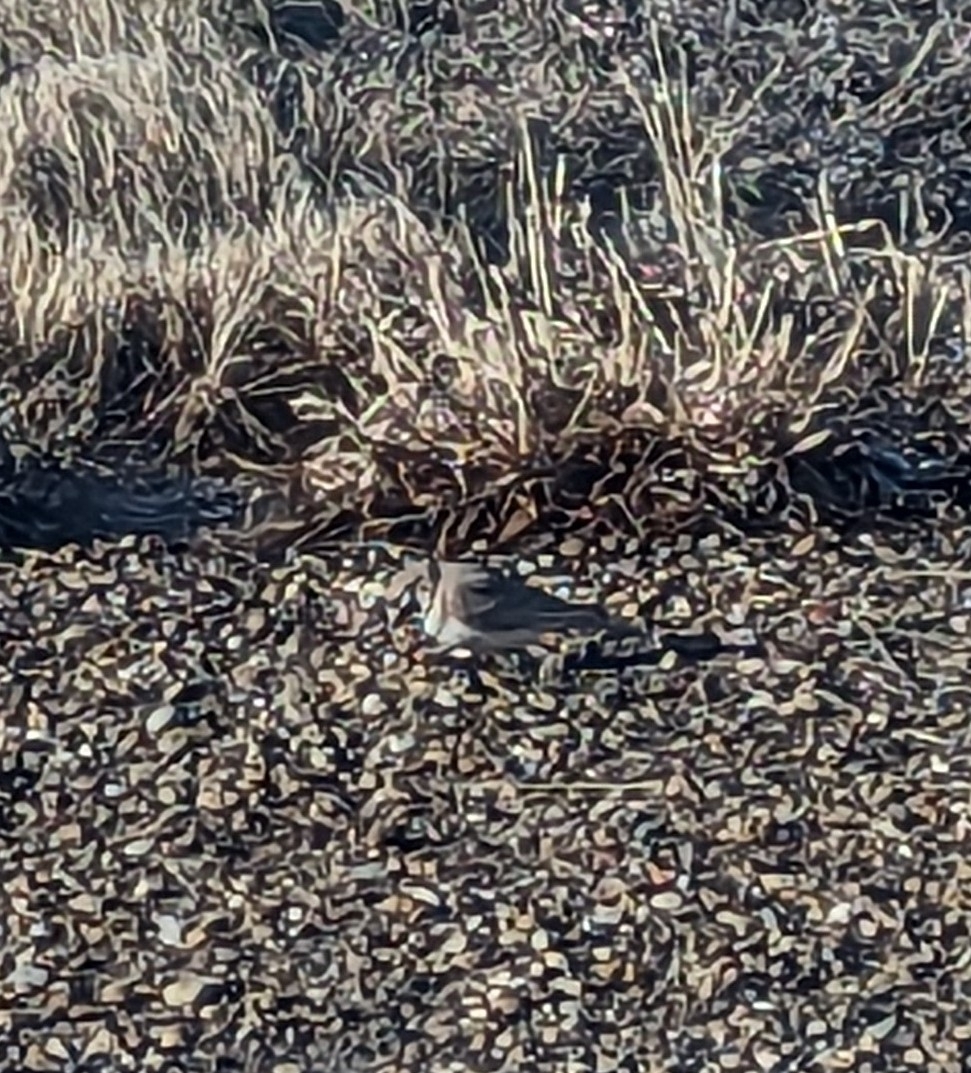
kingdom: Animalia
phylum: Chordata
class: Aves
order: Passeriformes
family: Alaudidae
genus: Eremophila
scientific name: Eremophila alpestris
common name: Horned lark
